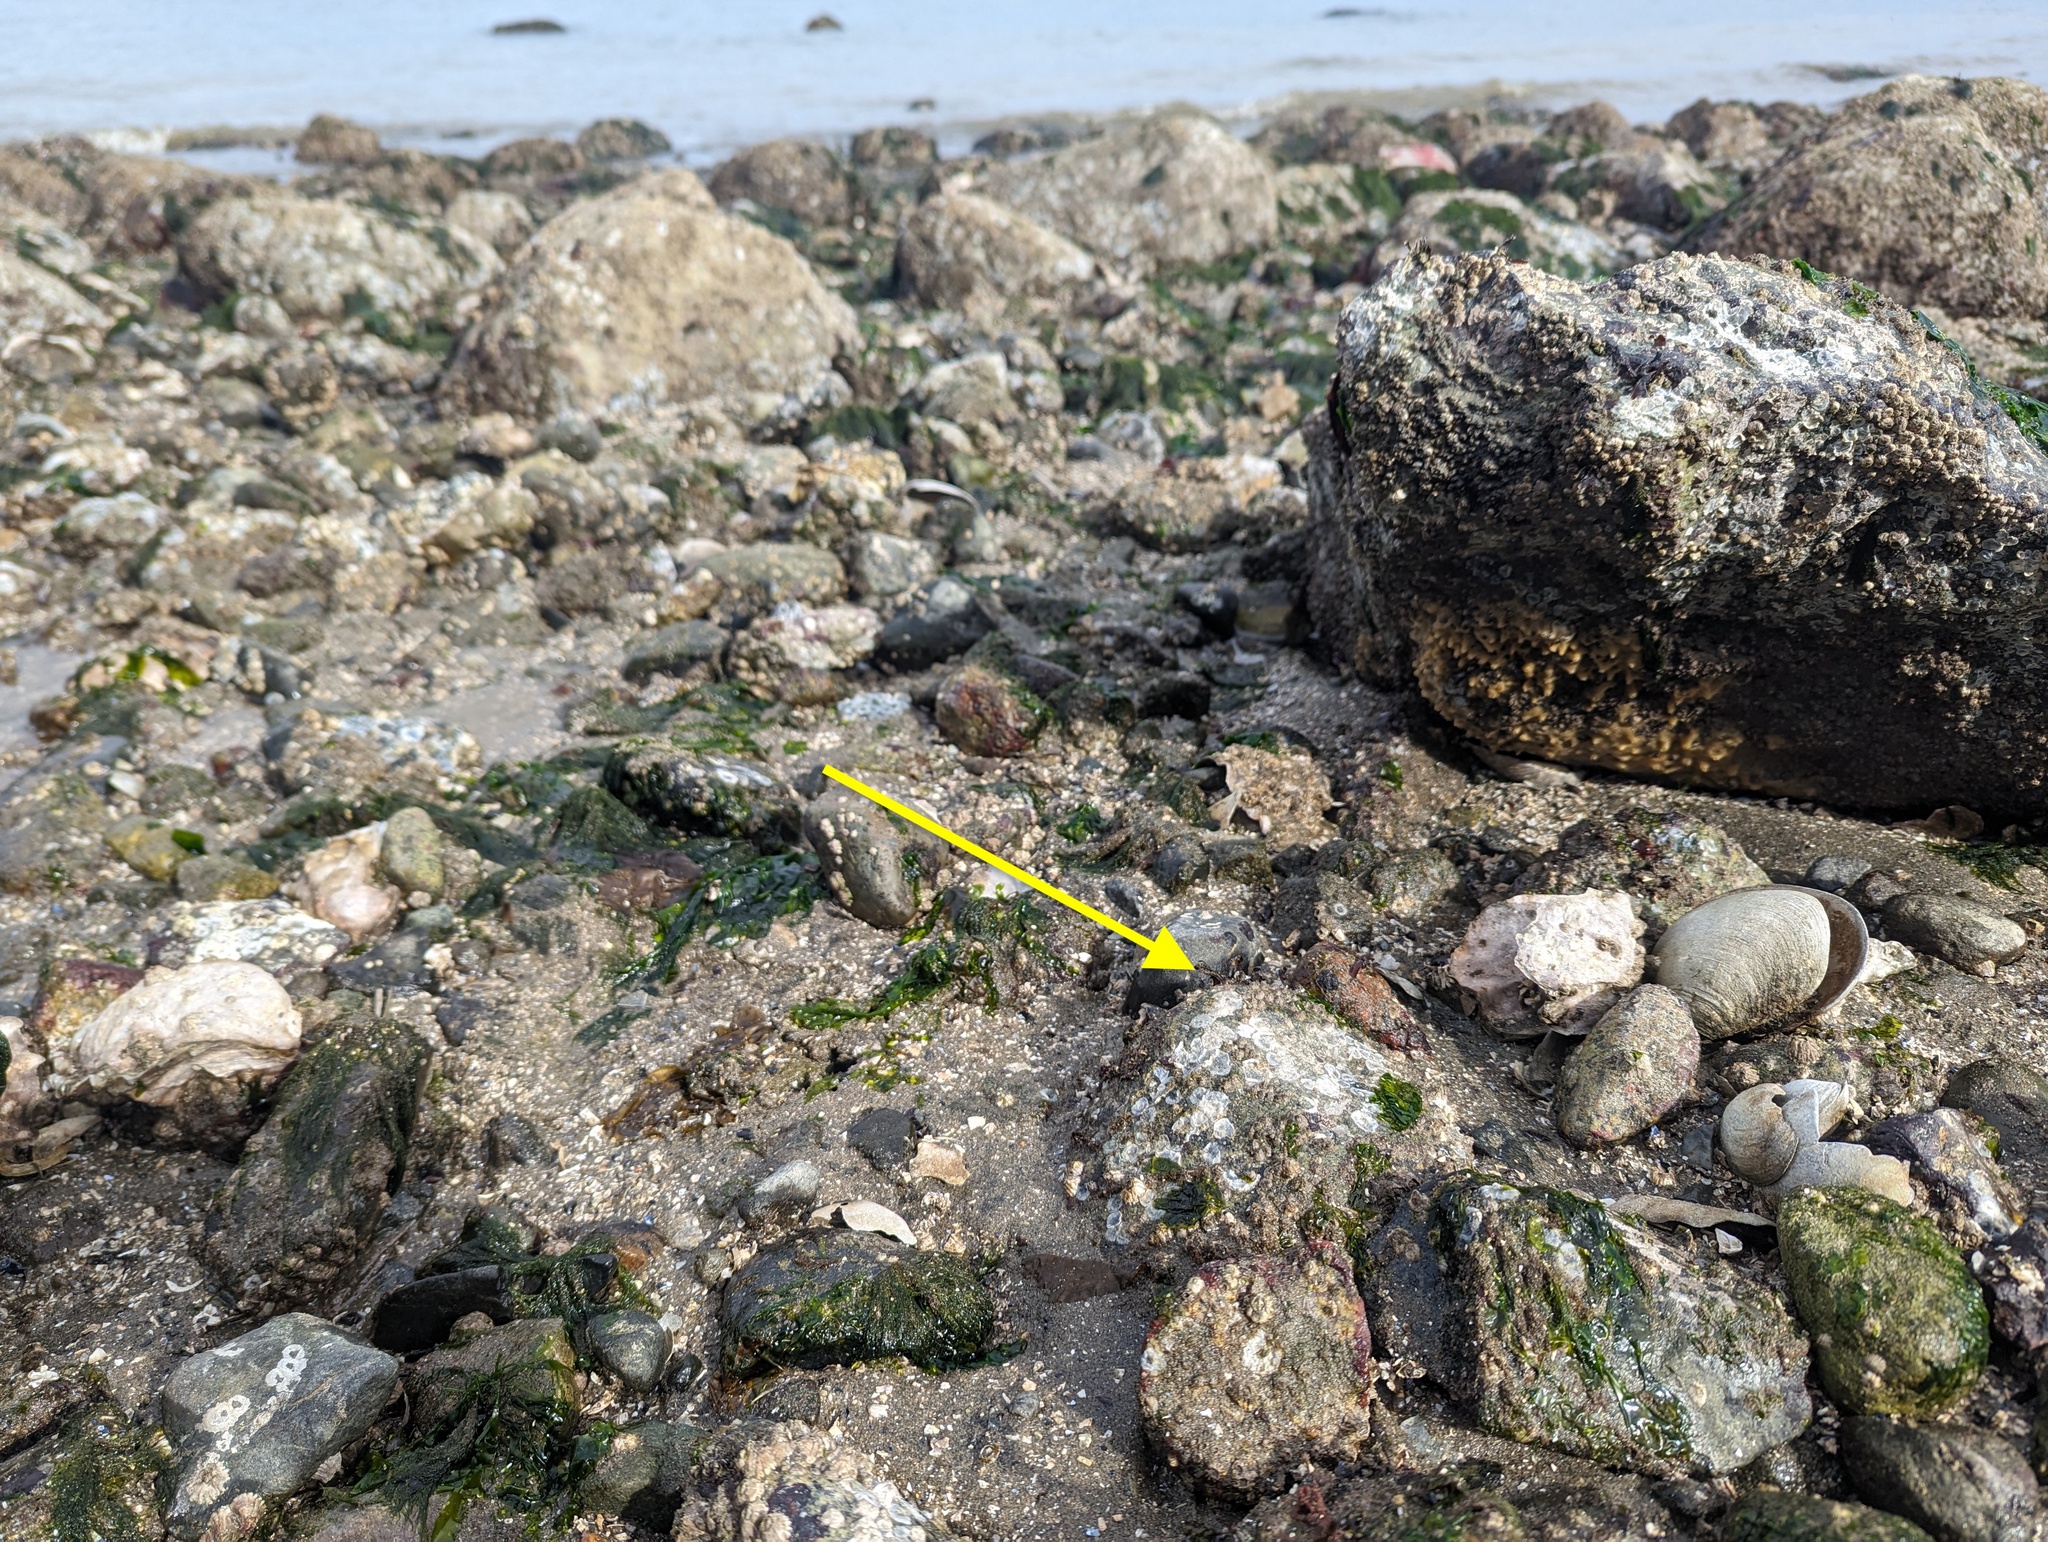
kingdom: Plantae
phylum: Rhodophyta
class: Florideophyceae
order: Ceramiales
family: Ceramiaceae
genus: Hollenbergia
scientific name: Hollenbergia subulata
